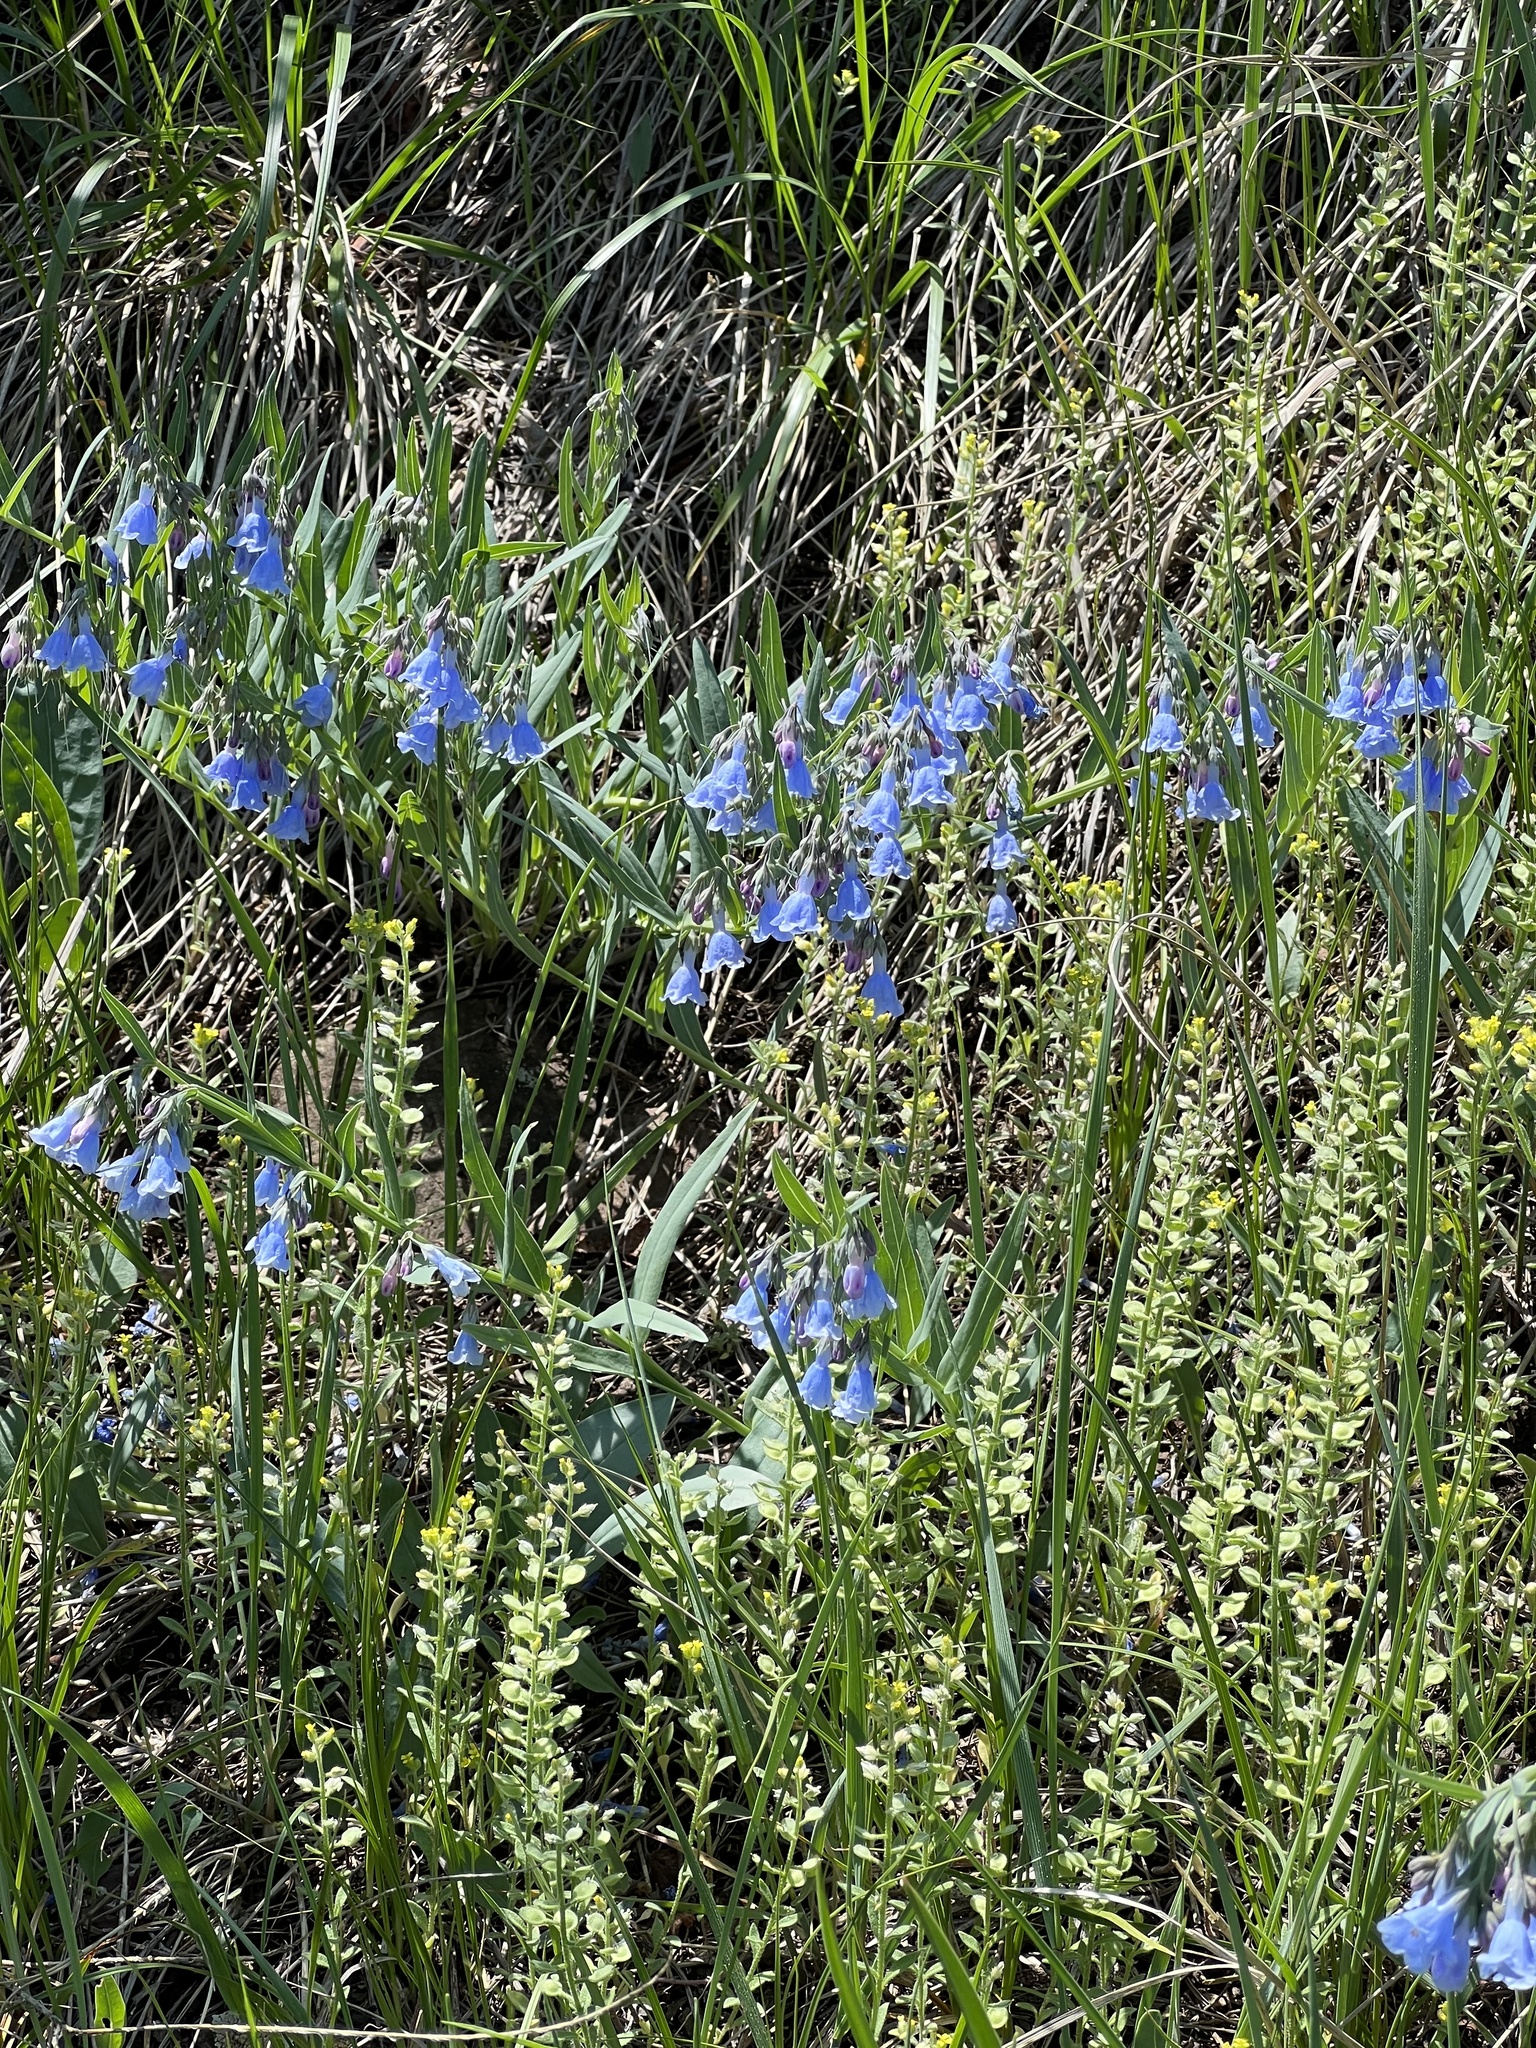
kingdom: Plantae
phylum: Tracheophyta
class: Magnoliopsida
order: Boraginales
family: Boraginaceae
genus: Mertensia
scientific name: Mertensia lanceolata
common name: Lance-leaved bluebells
